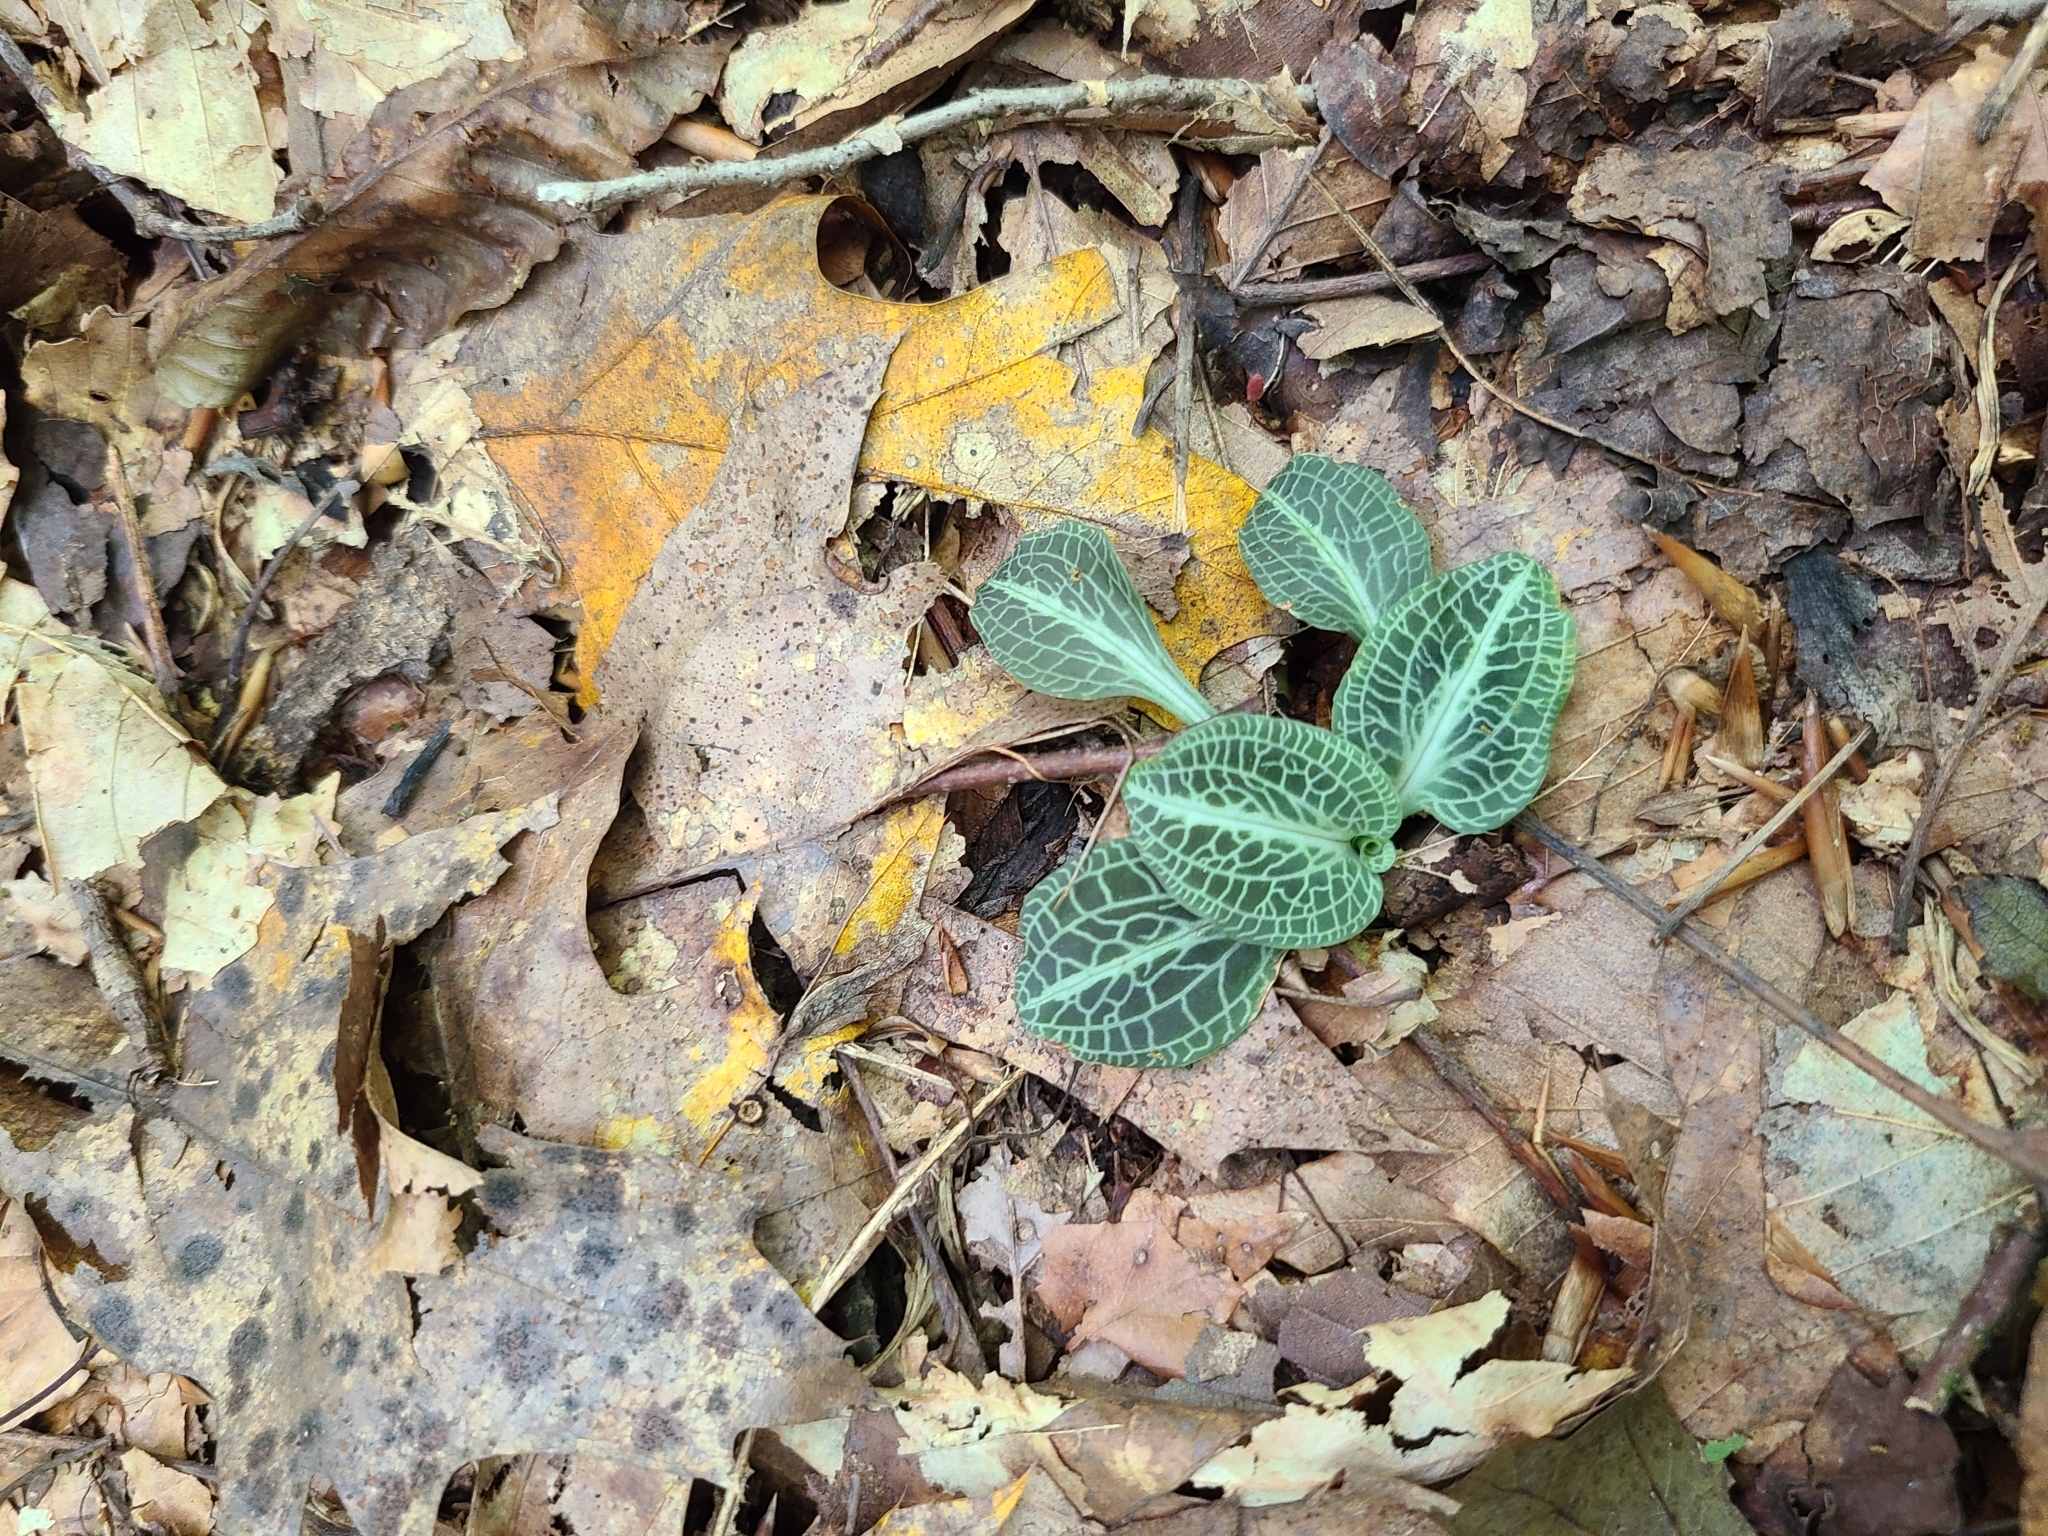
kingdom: Plantae
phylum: Tracheophyta
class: Liliopsida
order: Asparagales
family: Orchidaceae
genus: Goodyera
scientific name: Goodyera pubescens
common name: Downy rattlesnake-plantain
